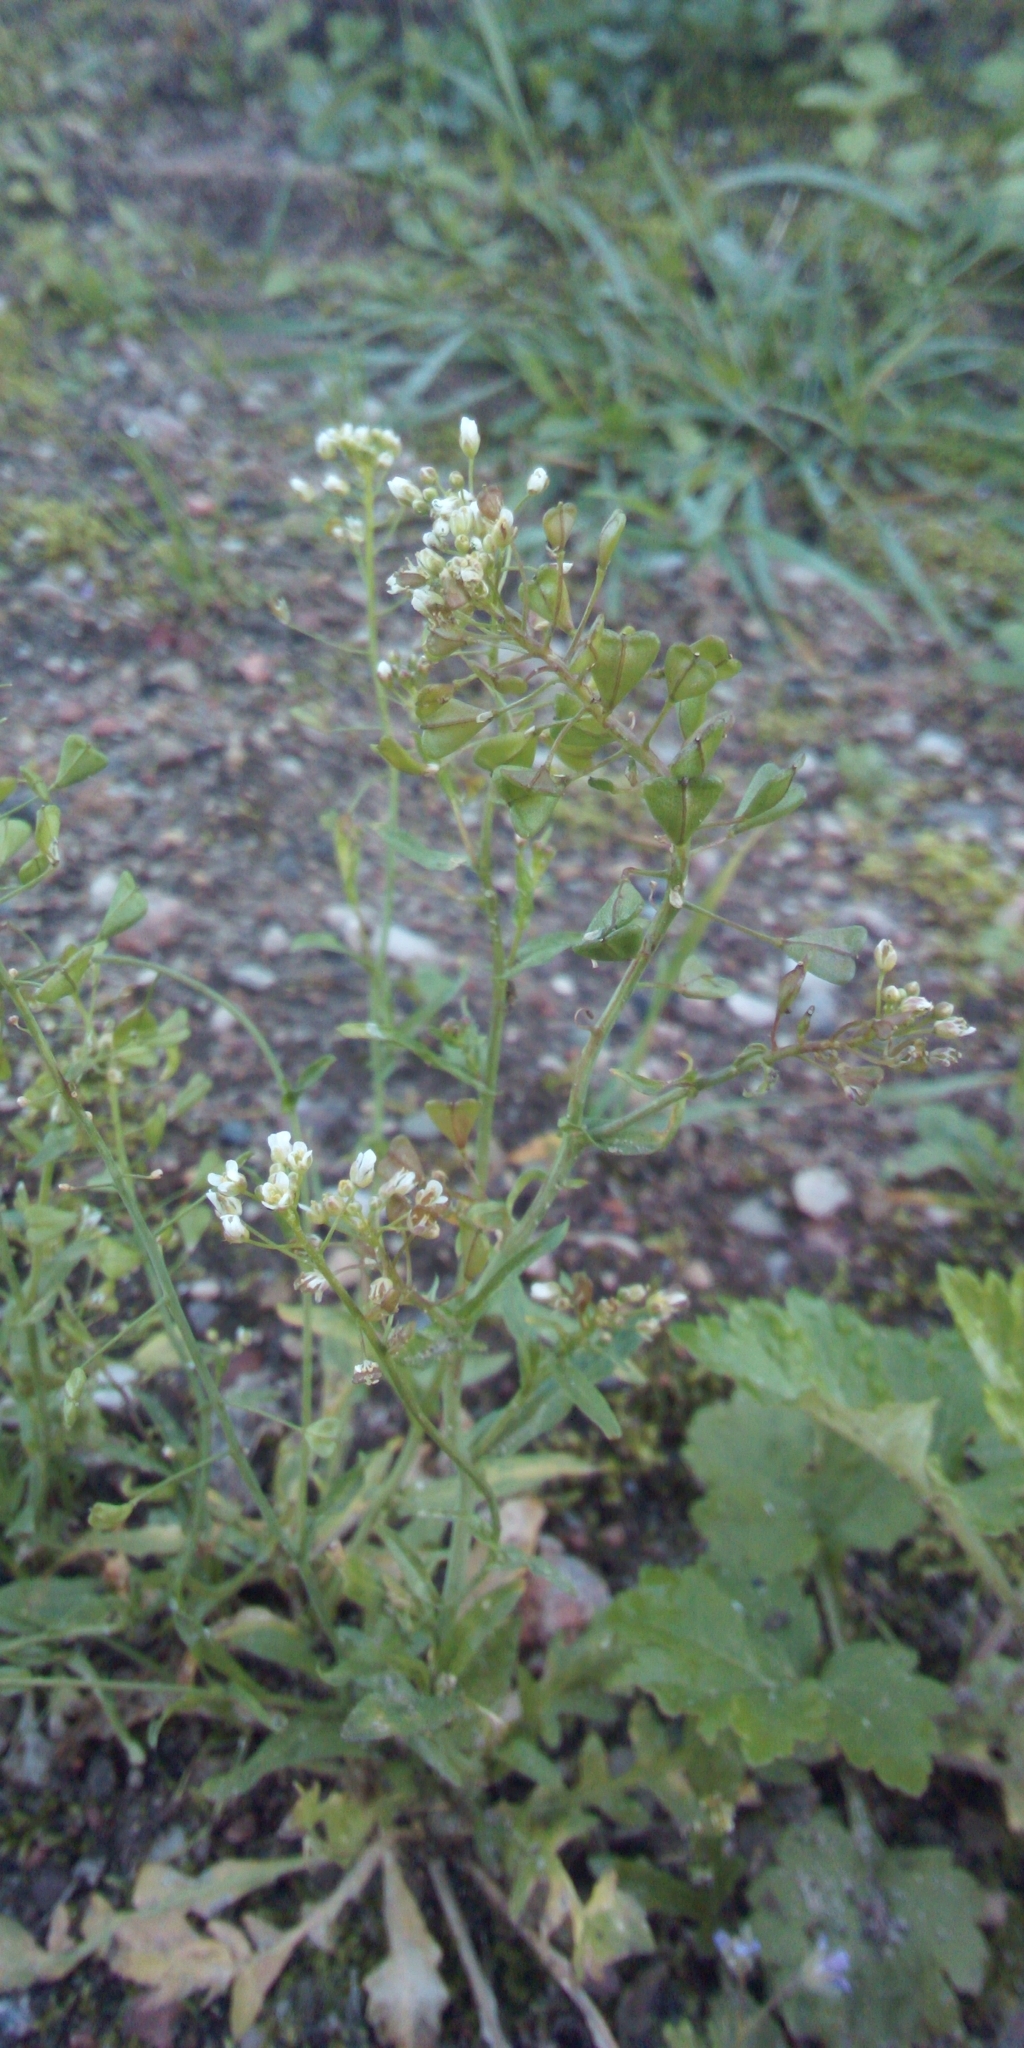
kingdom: Plantae
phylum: Tracheophyta
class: Magnoliopsida
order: Brassicales
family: Brassicaceae
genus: Capsella
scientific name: Capsella bursa-pastoris
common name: Shepherd's purse
